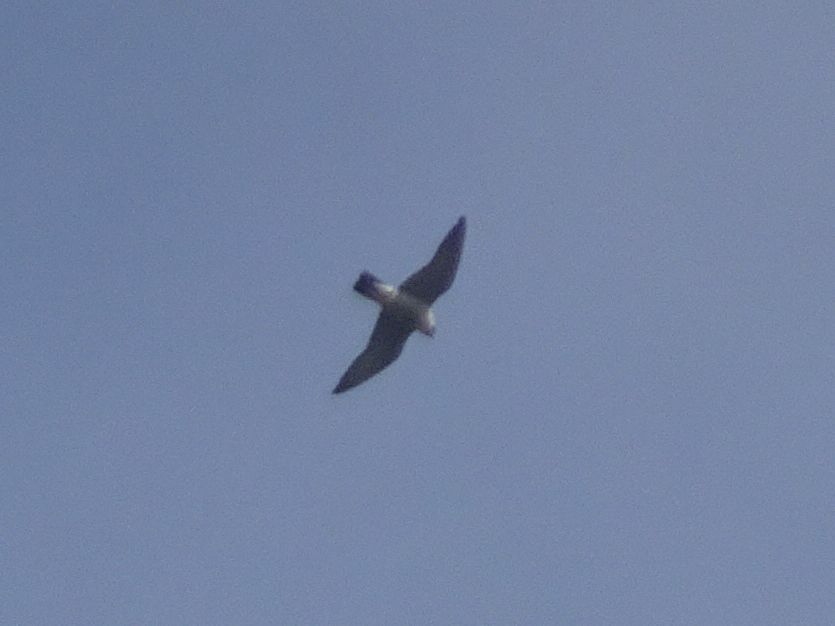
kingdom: Animalia
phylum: Chordata
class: Aves
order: Falconiformes
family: Falconidae
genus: Falco
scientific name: Falco peregrinus
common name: Peregrine falcon
